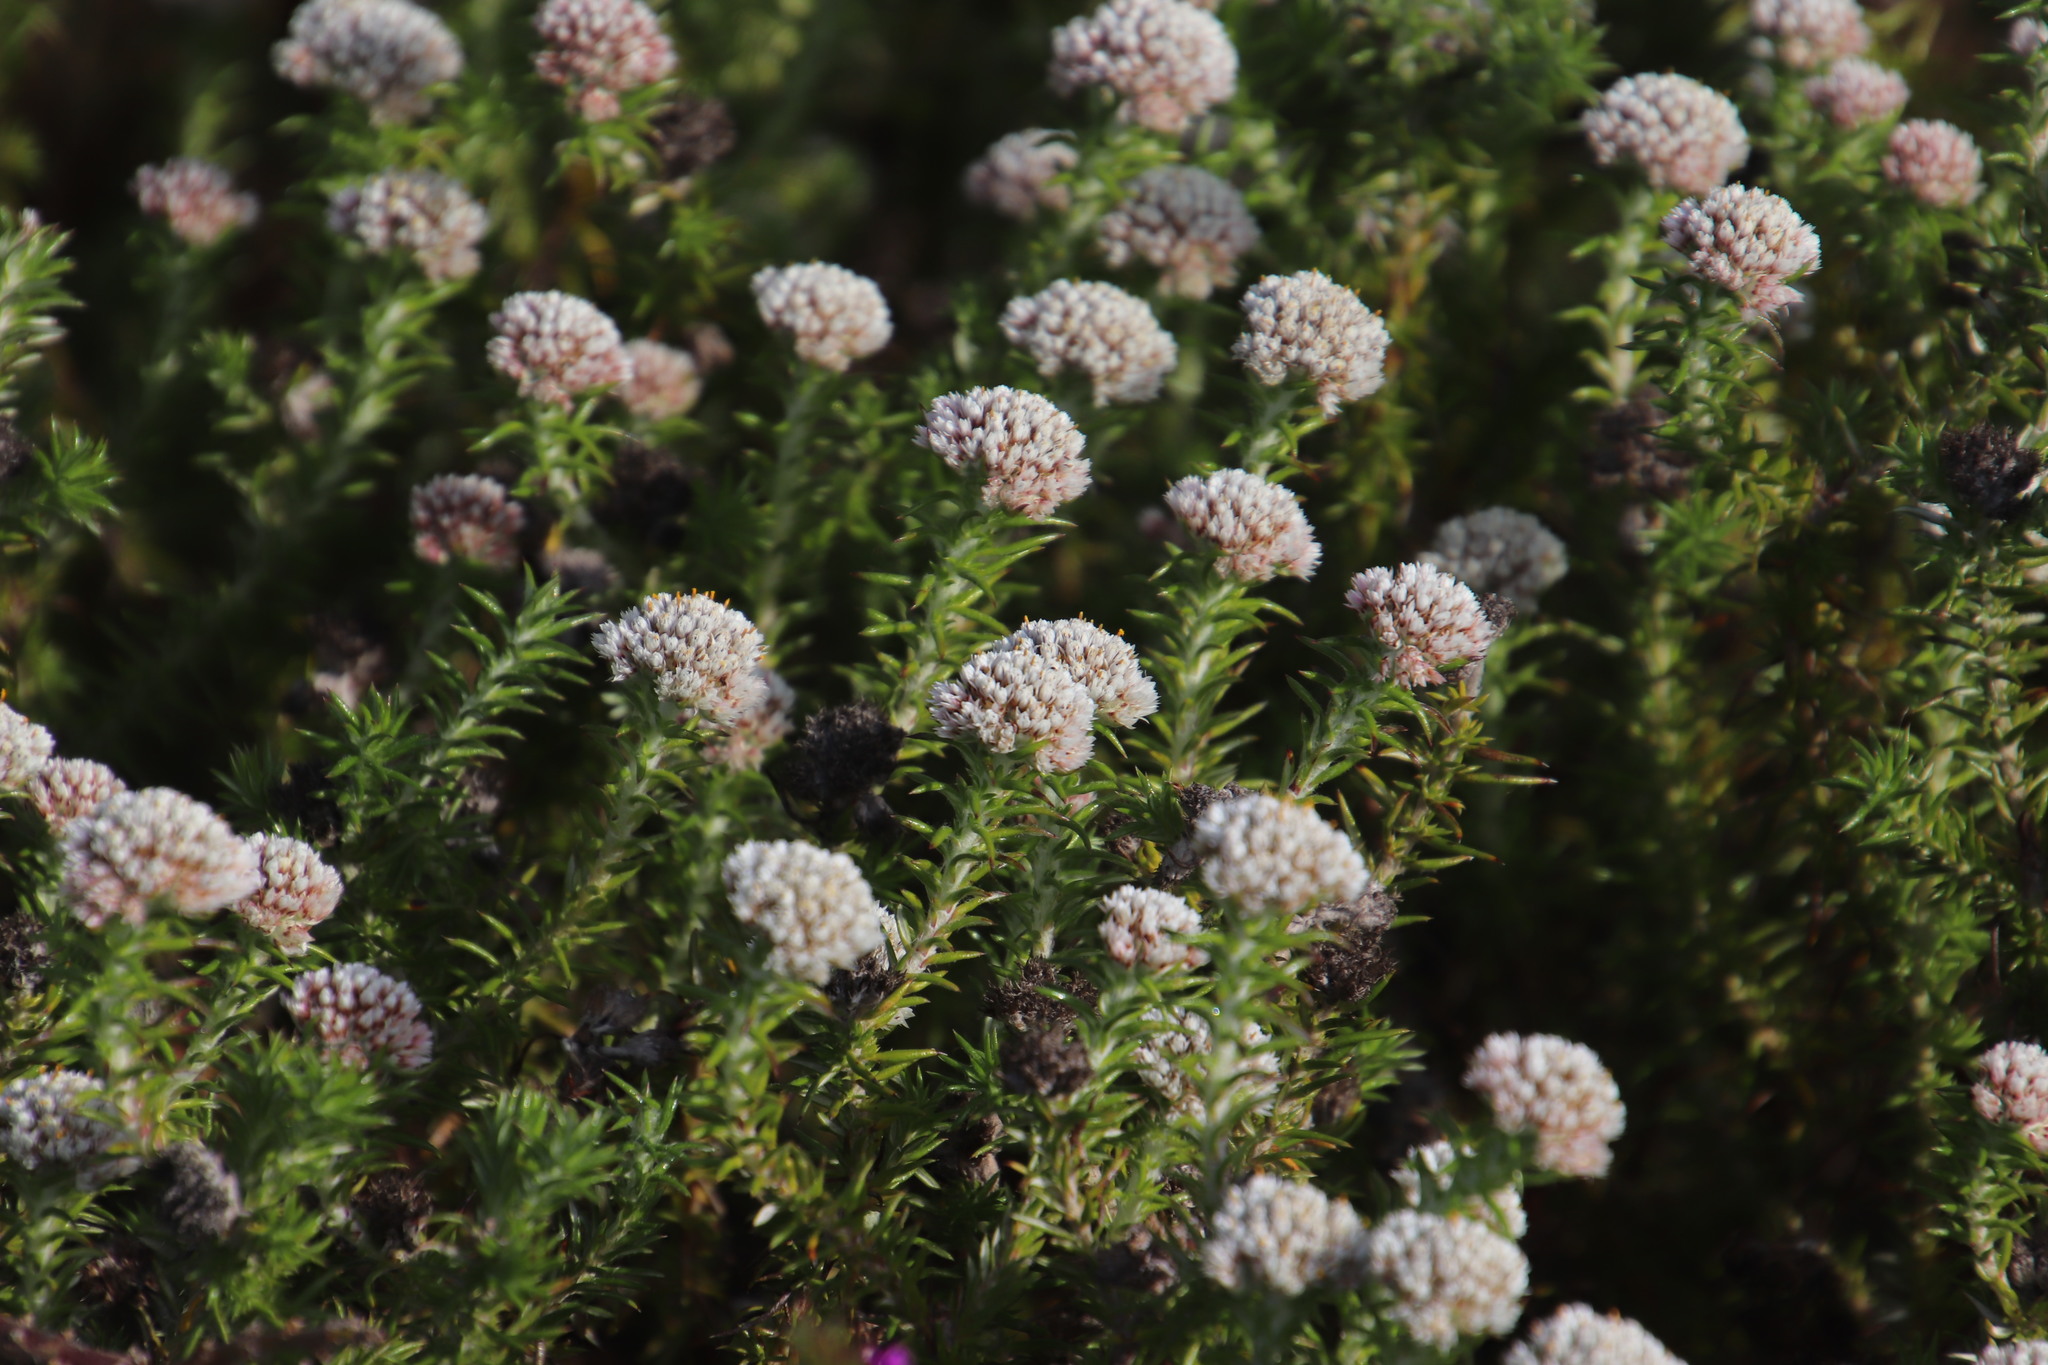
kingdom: Plantae
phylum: Tracheophyta
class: Magnoliopsida
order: Asterales
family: Asteraceae
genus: Metalasia
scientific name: Metalasia pulchella
